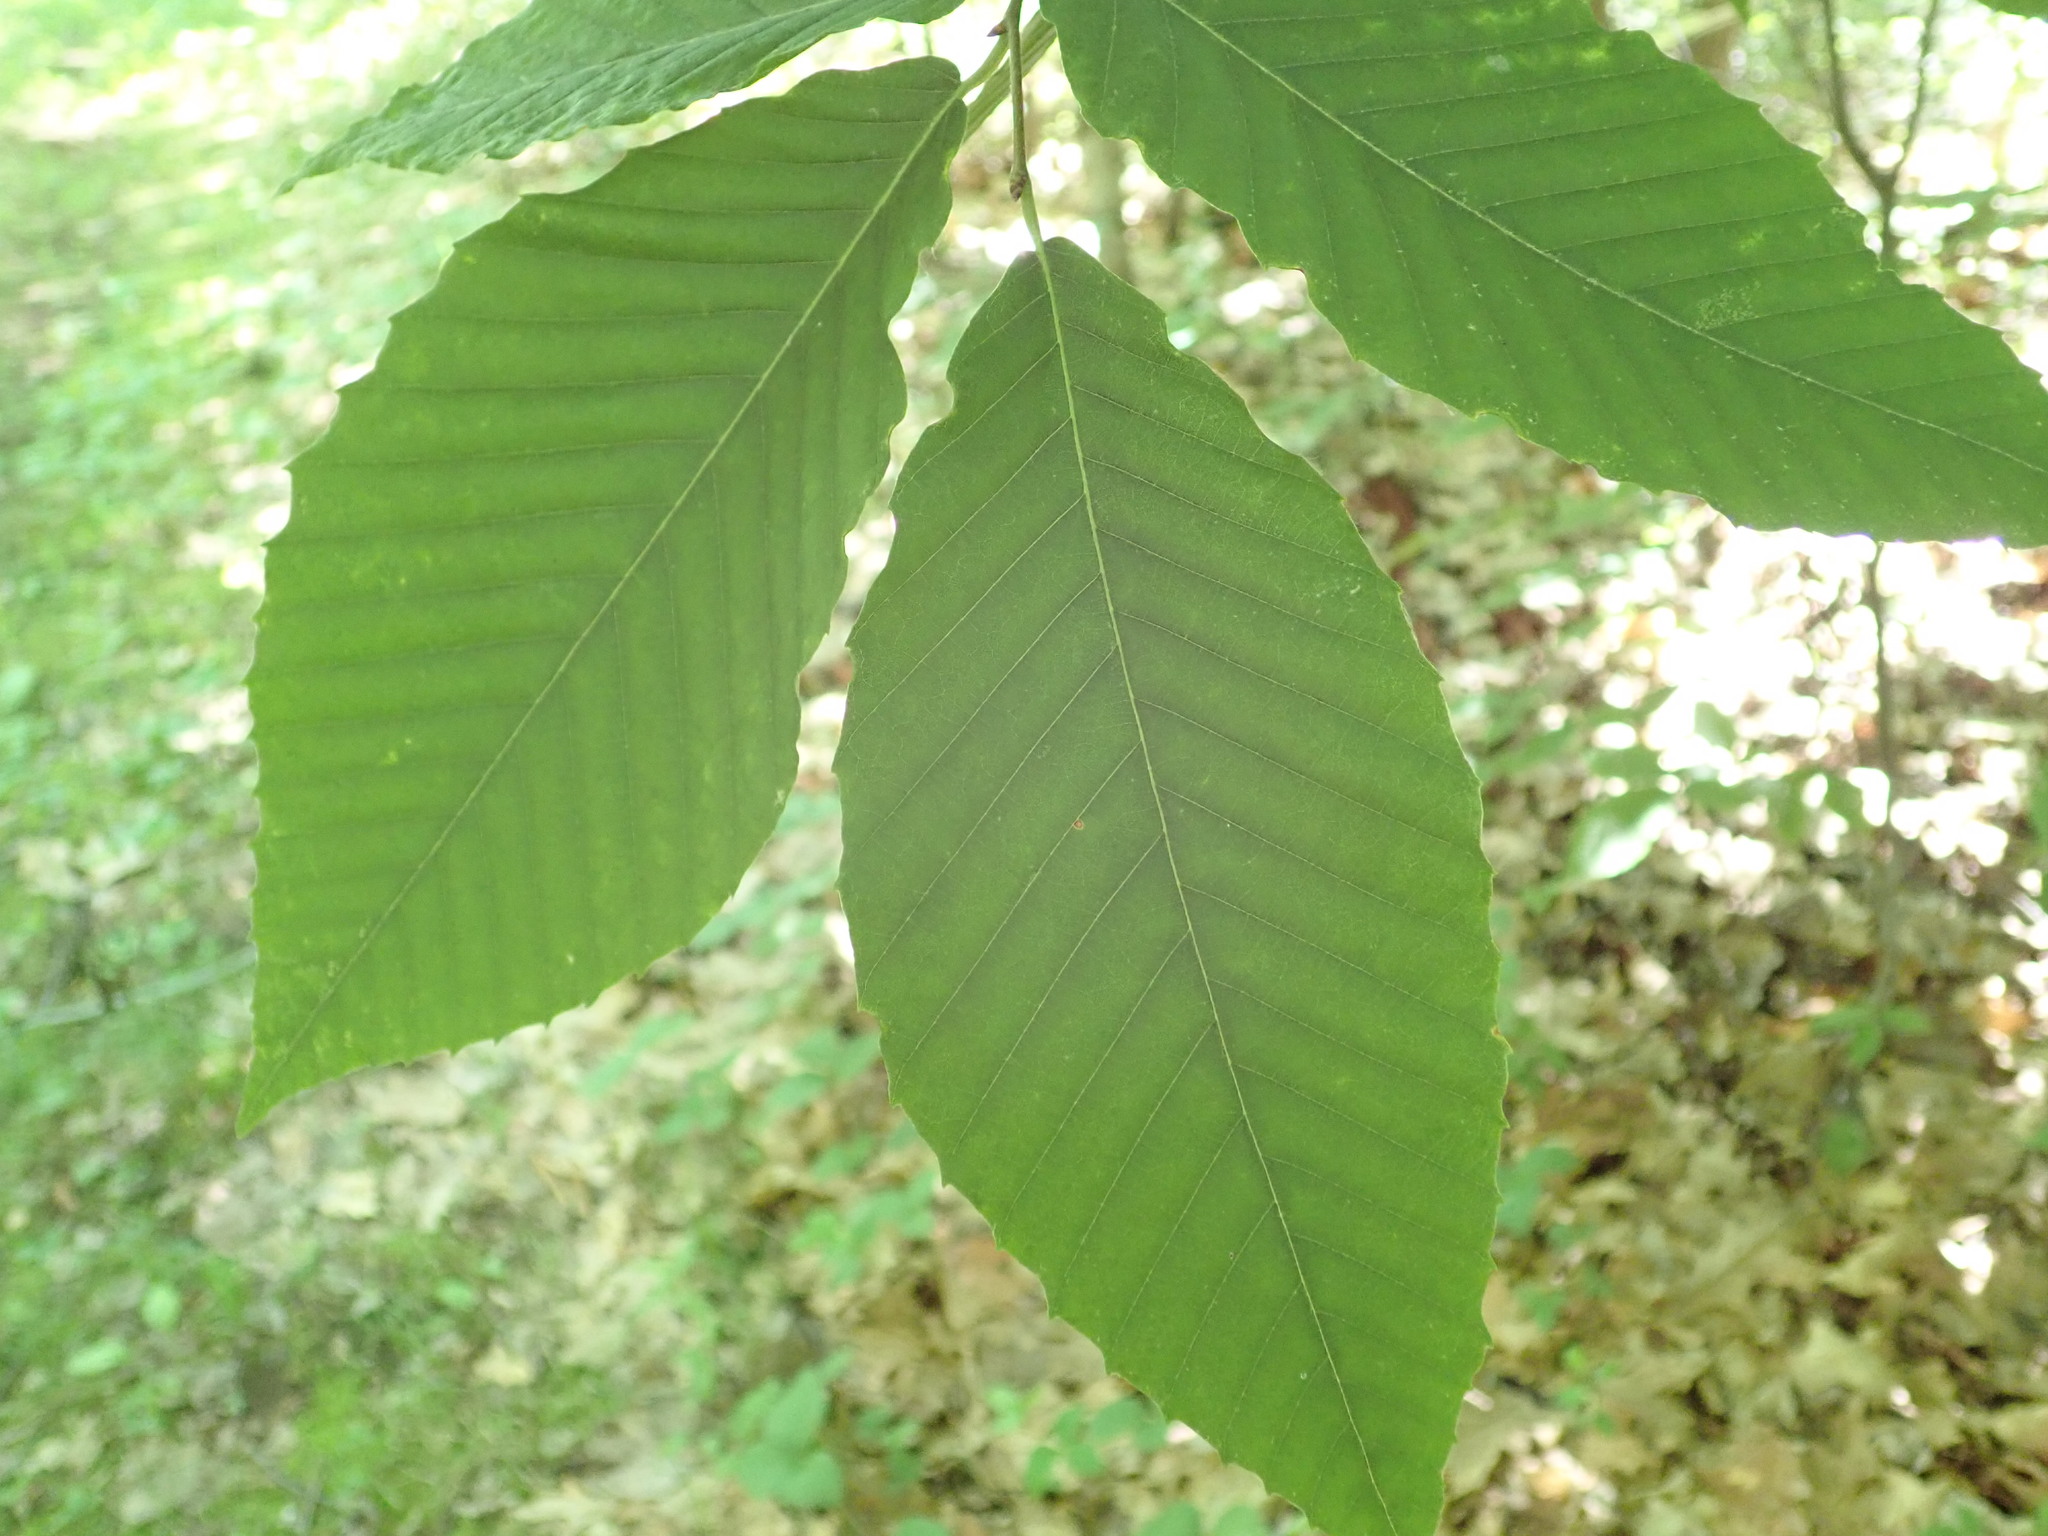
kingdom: Plantae
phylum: Tracheophyta
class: Magnoliopsida
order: Fagales
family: Fagaceae
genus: Fagus
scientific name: Fagus grandifolia
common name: American beech
